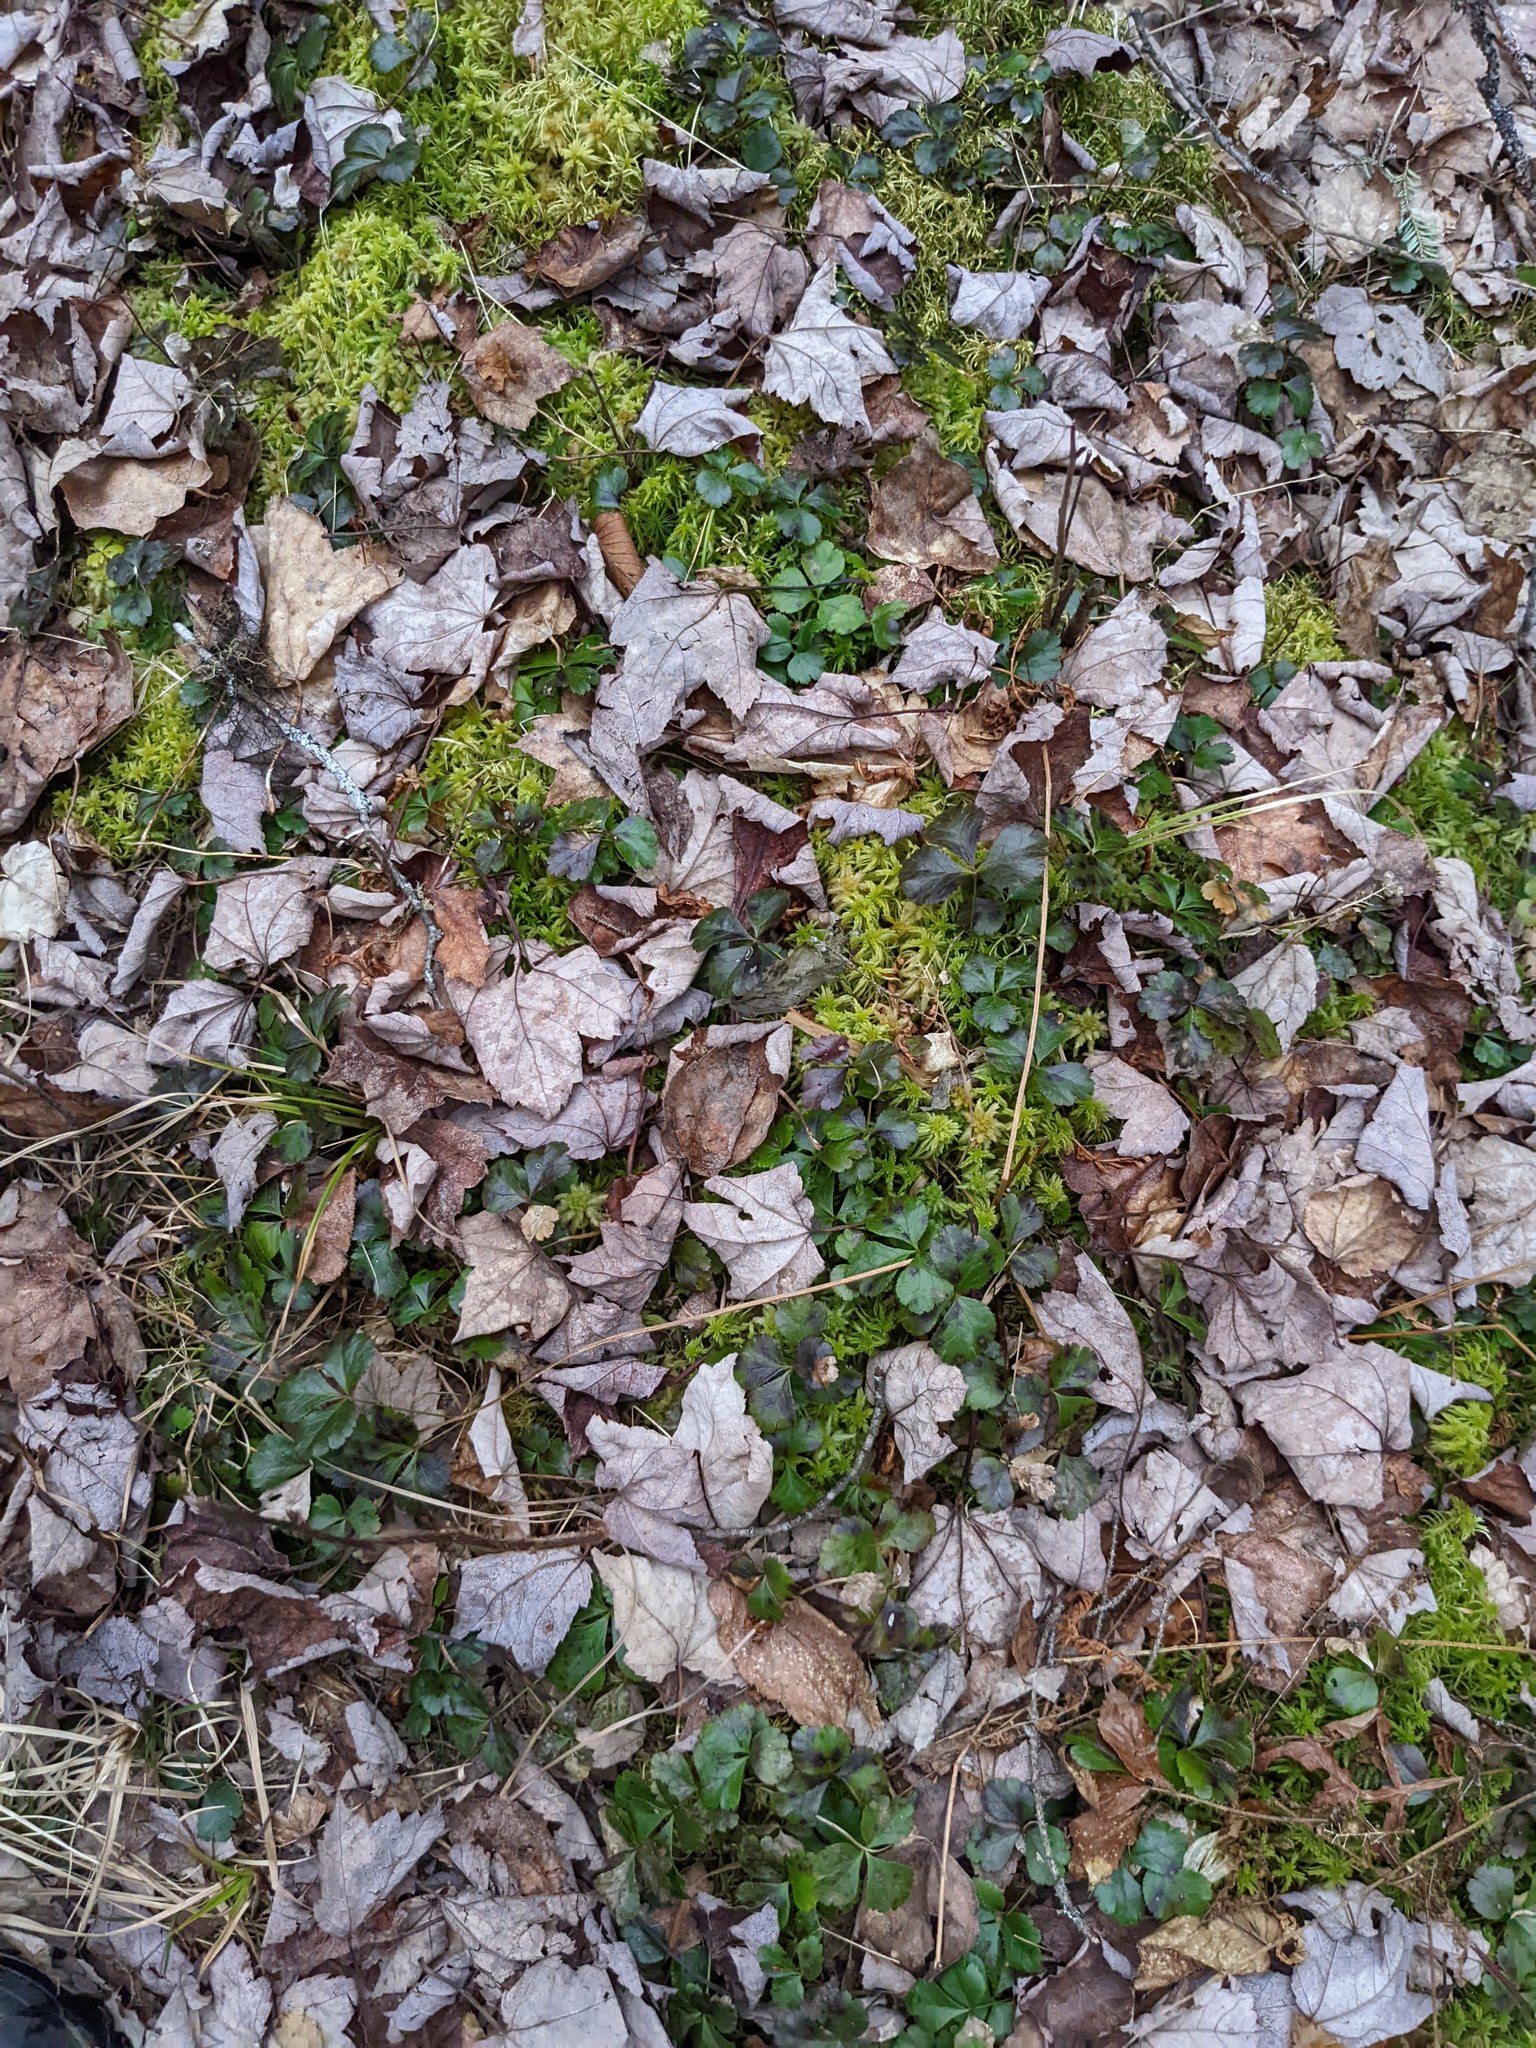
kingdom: Plantae
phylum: Tracheophyta
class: Magnoliopsida
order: Ranunculales
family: Ranunculaceae
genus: Coptis
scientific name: Coptis trifolia
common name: Canker-root
